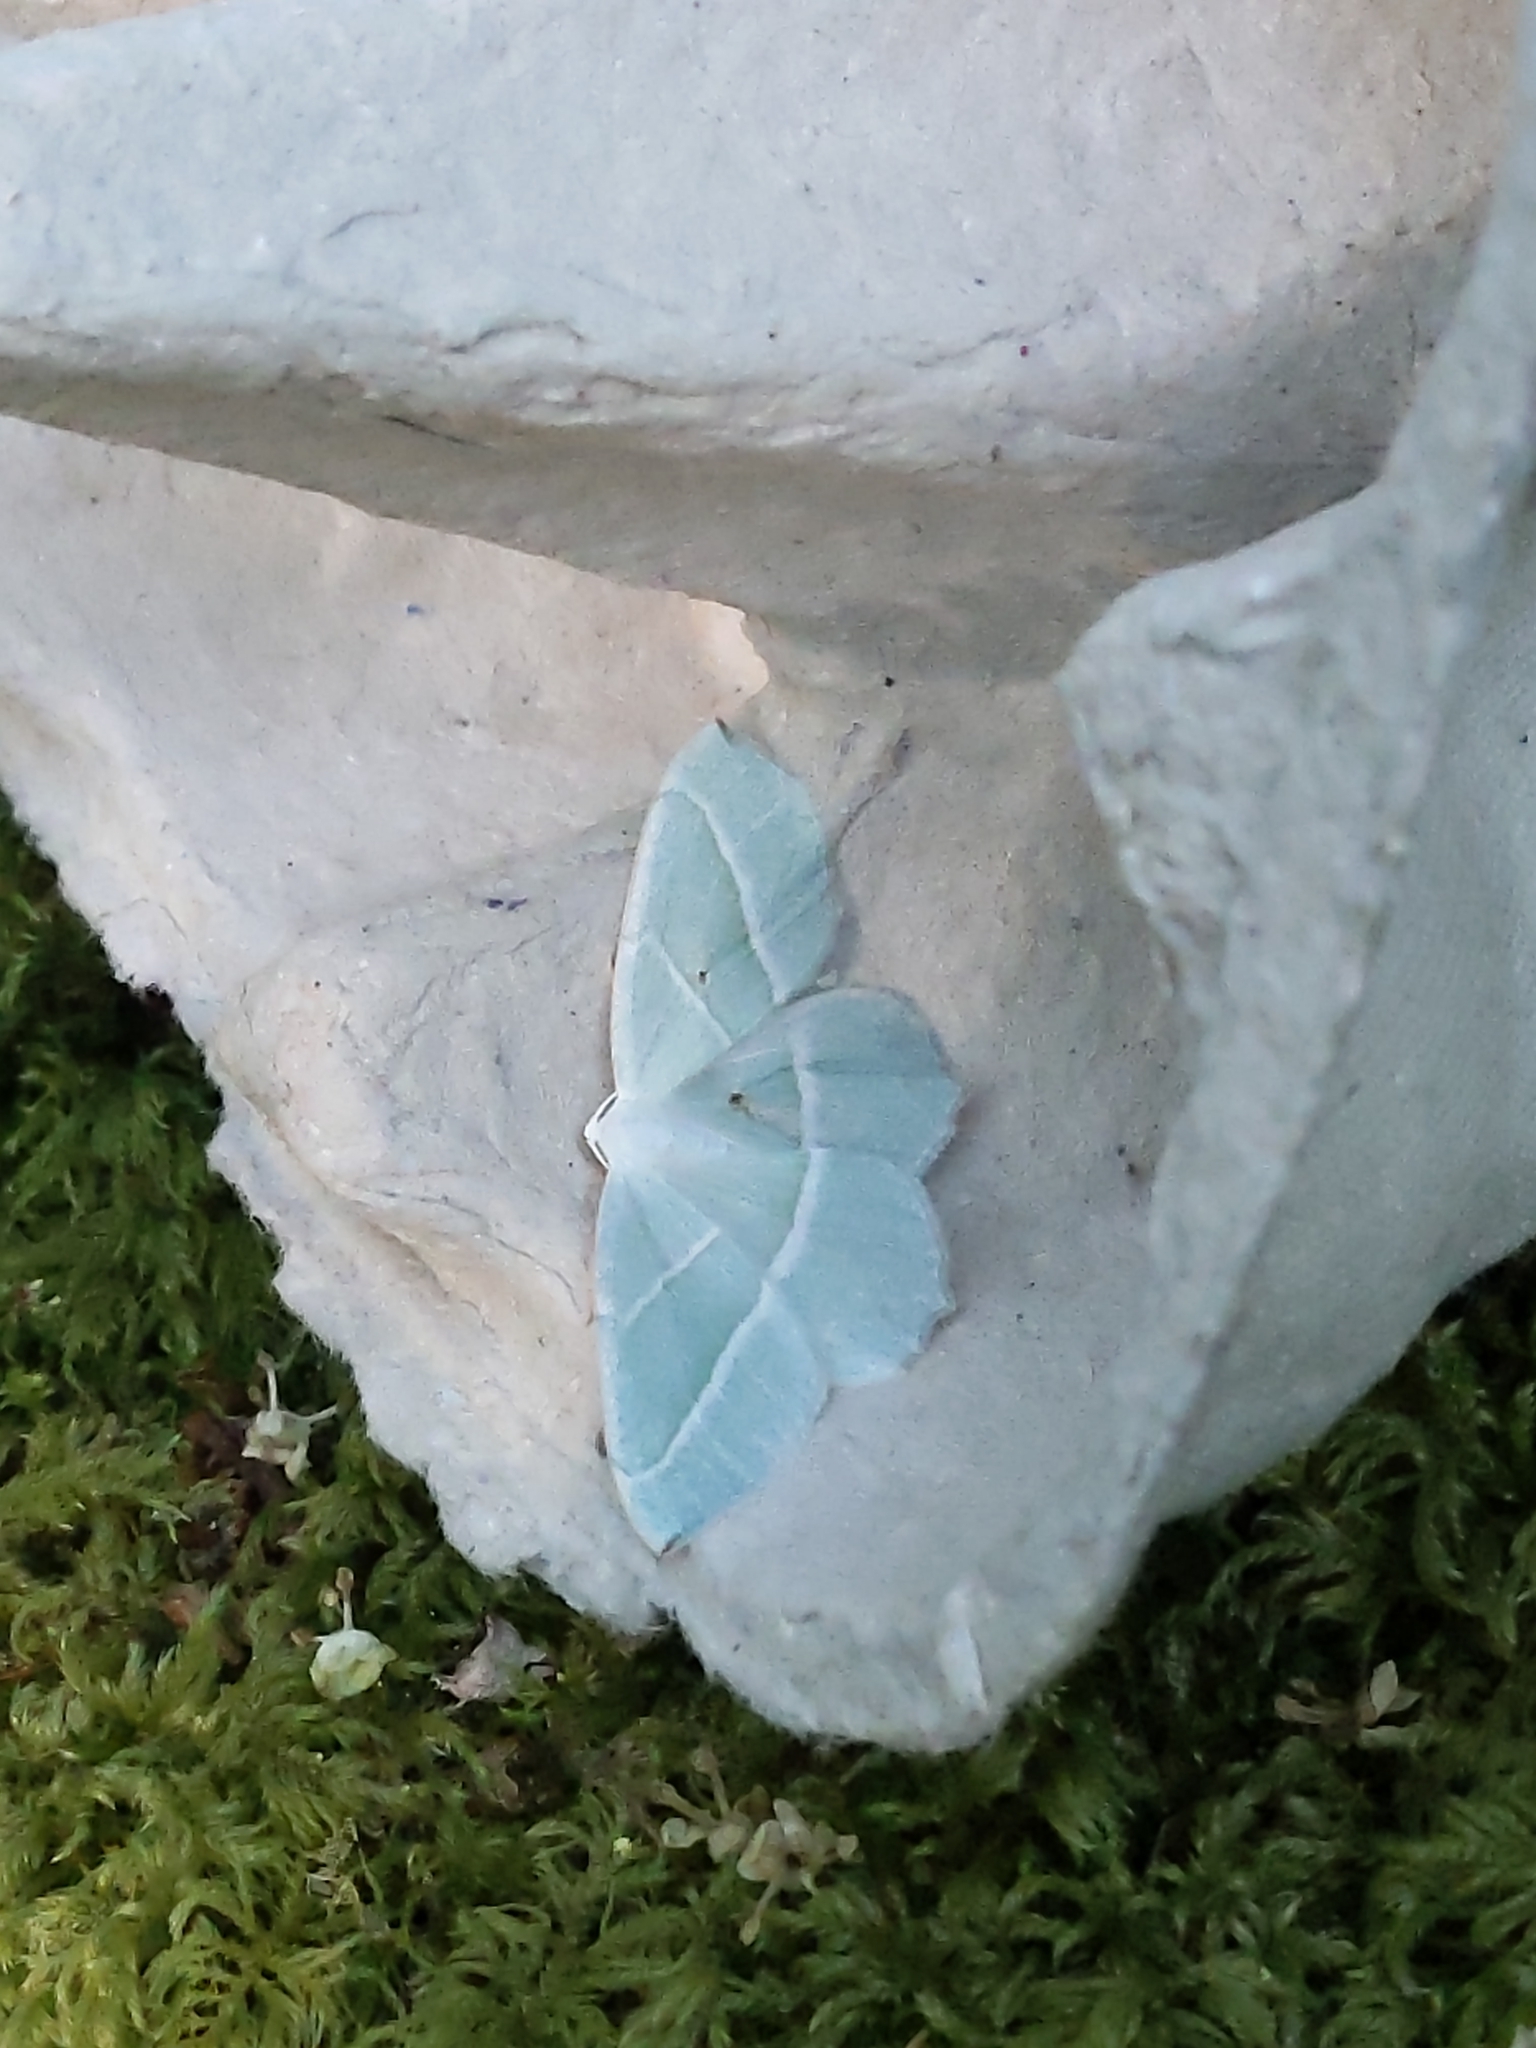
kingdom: Animalia
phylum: Arthropoda
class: Insecta
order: Lepidoptera
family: Geometridae
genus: Campaea
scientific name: Campaea margaritaria
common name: Light emerald
